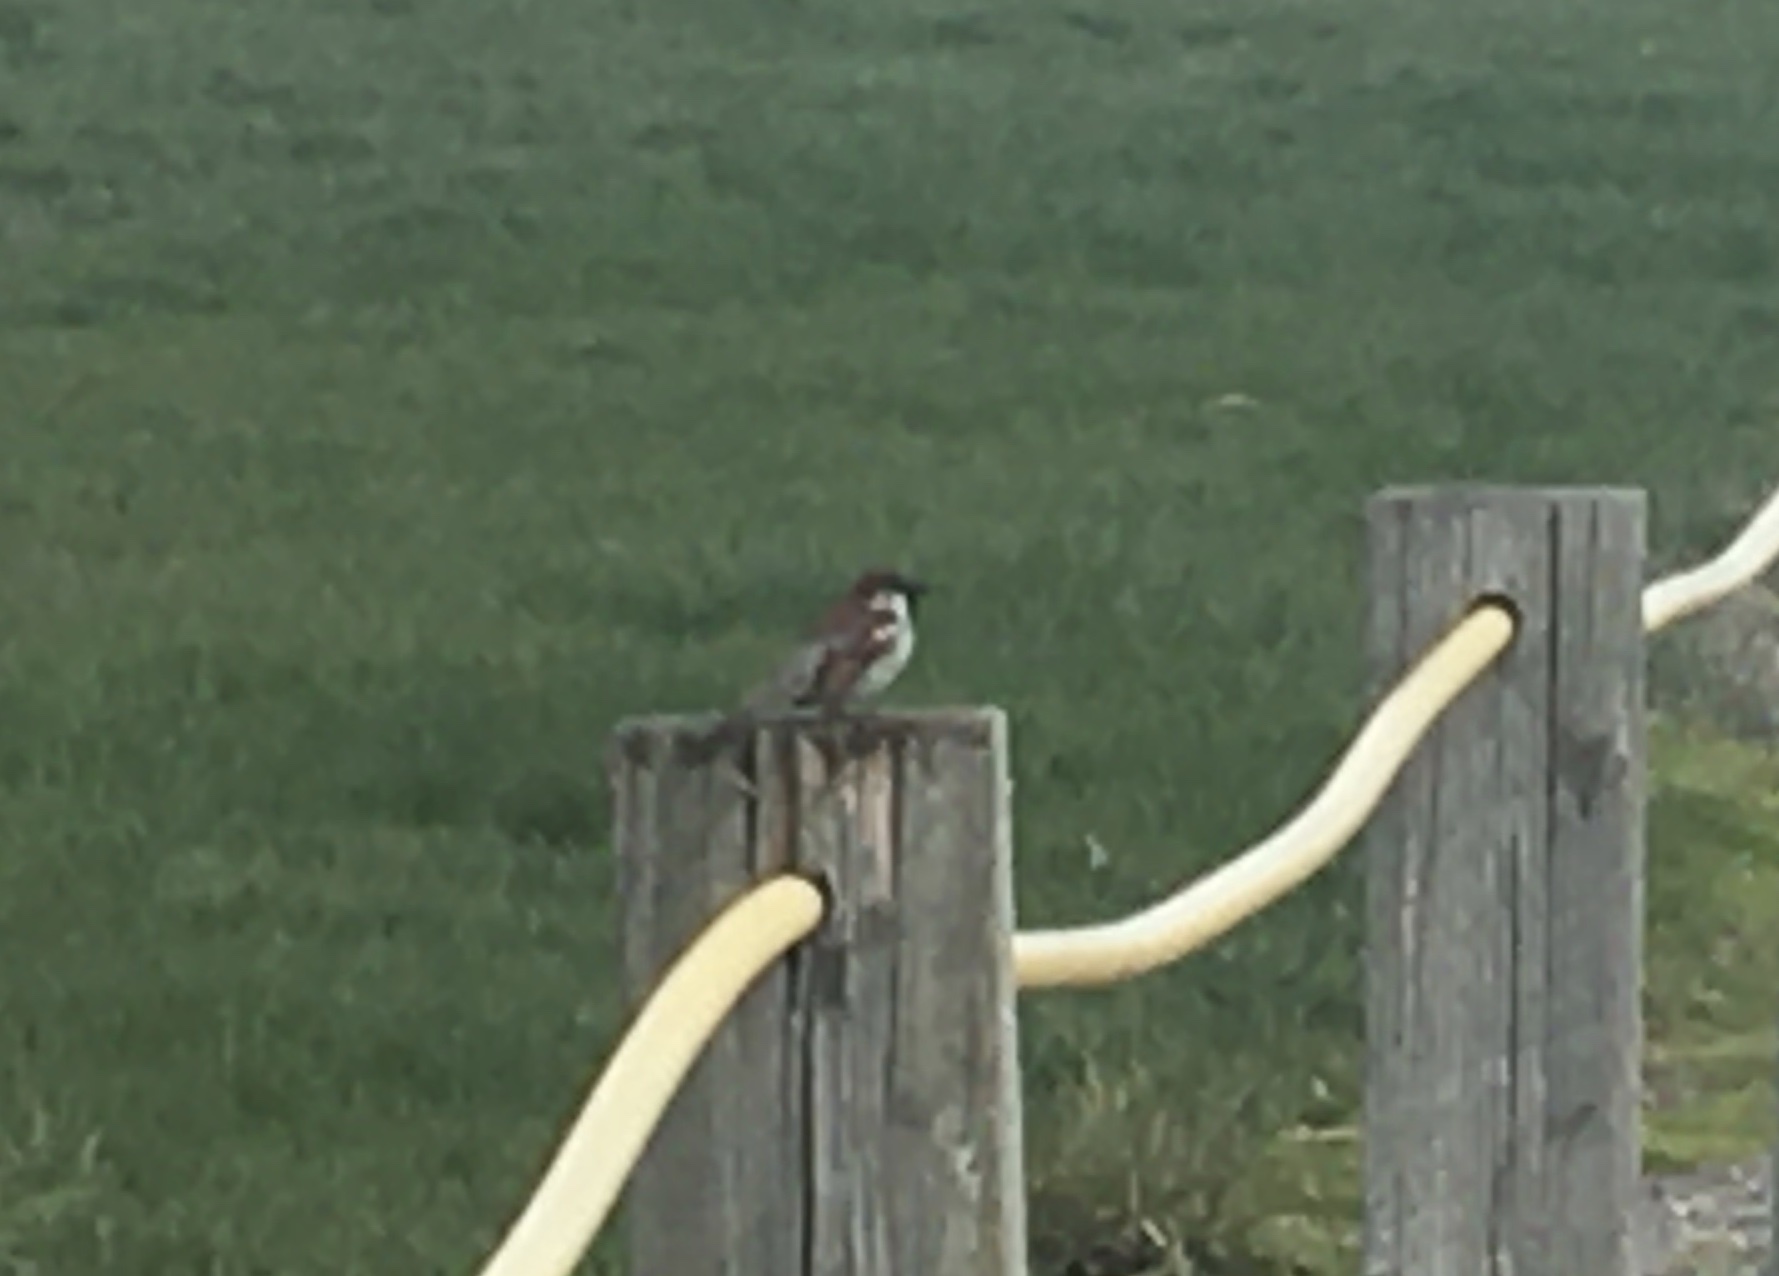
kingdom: Animalia
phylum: Chordata
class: Aves
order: Passeriformes
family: Passeridae
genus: Passer
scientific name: Passer domesticus
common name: House sparrow
